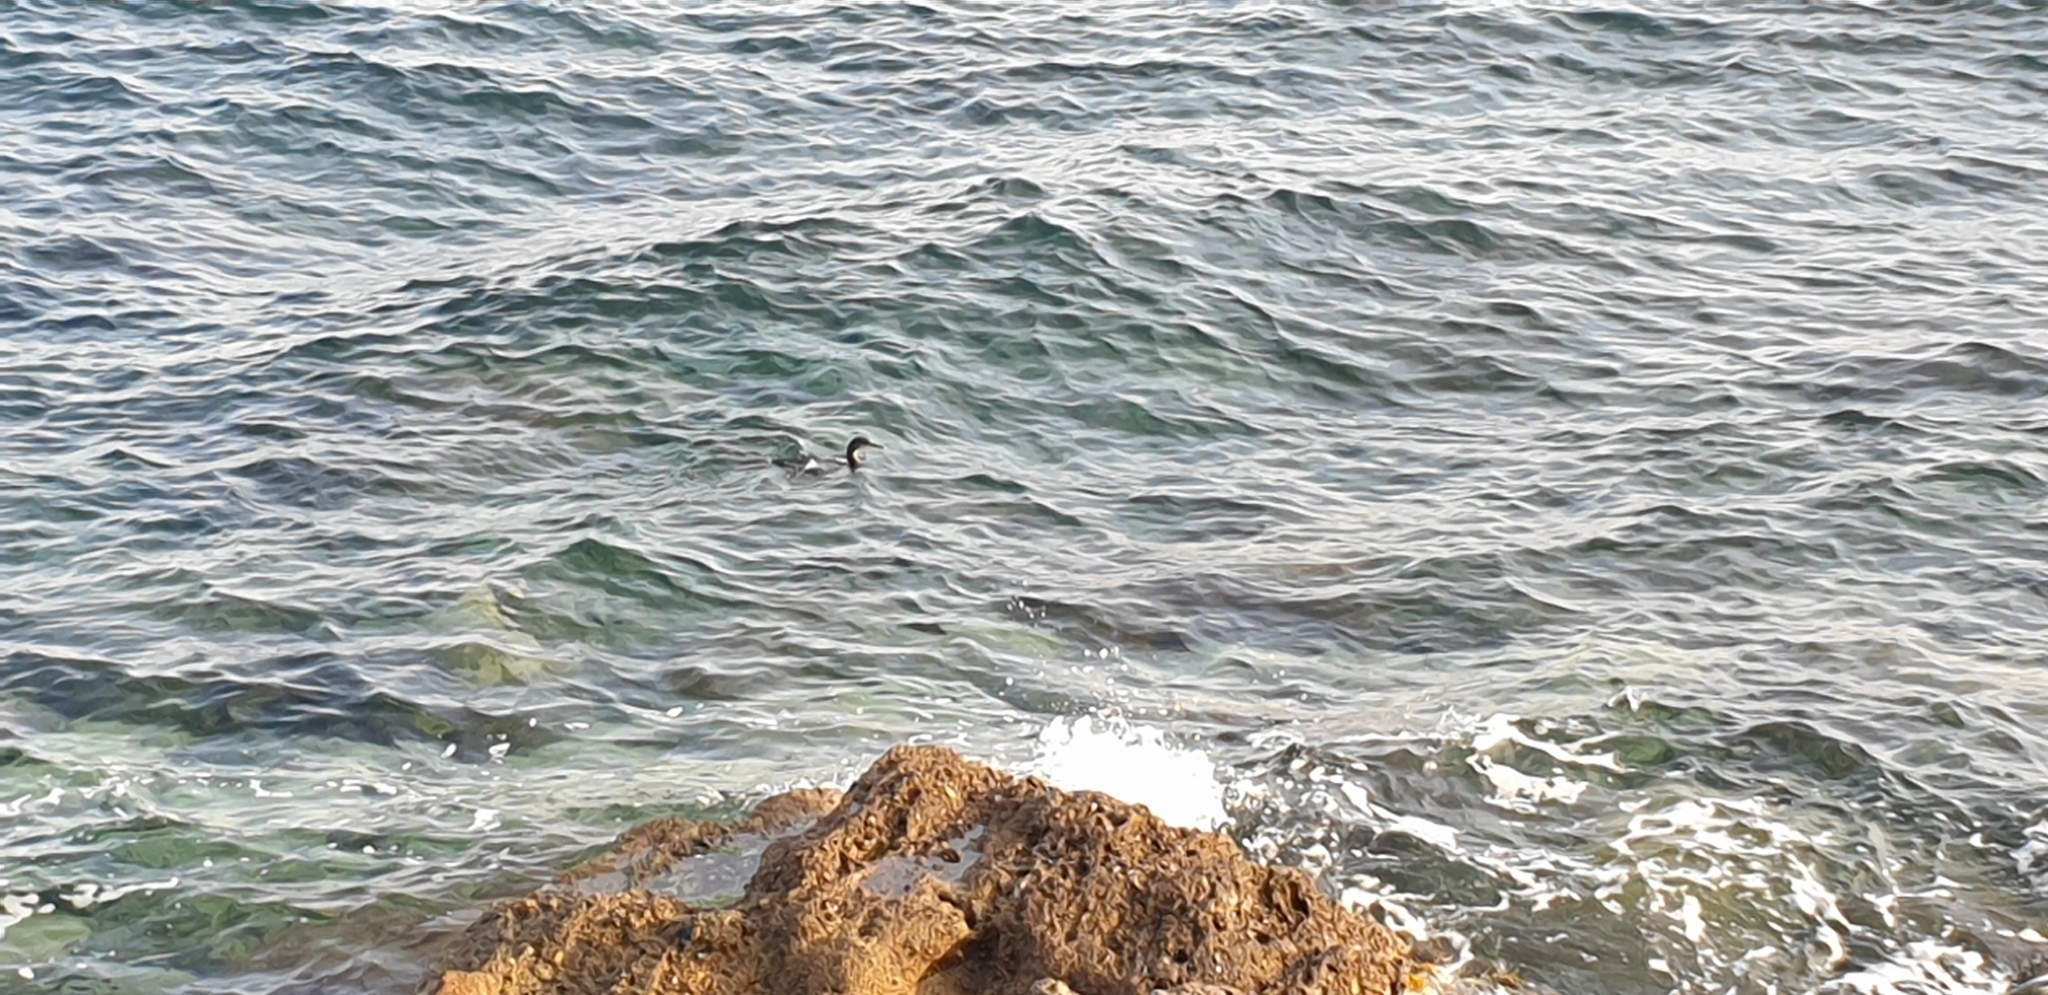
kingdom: Animalia
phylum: Chordata
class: Aves
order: Suliformes
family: Phalacrocoracidae
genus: Phalacrocorax
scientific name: Phalacrocorax aristotelis
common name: European shag
